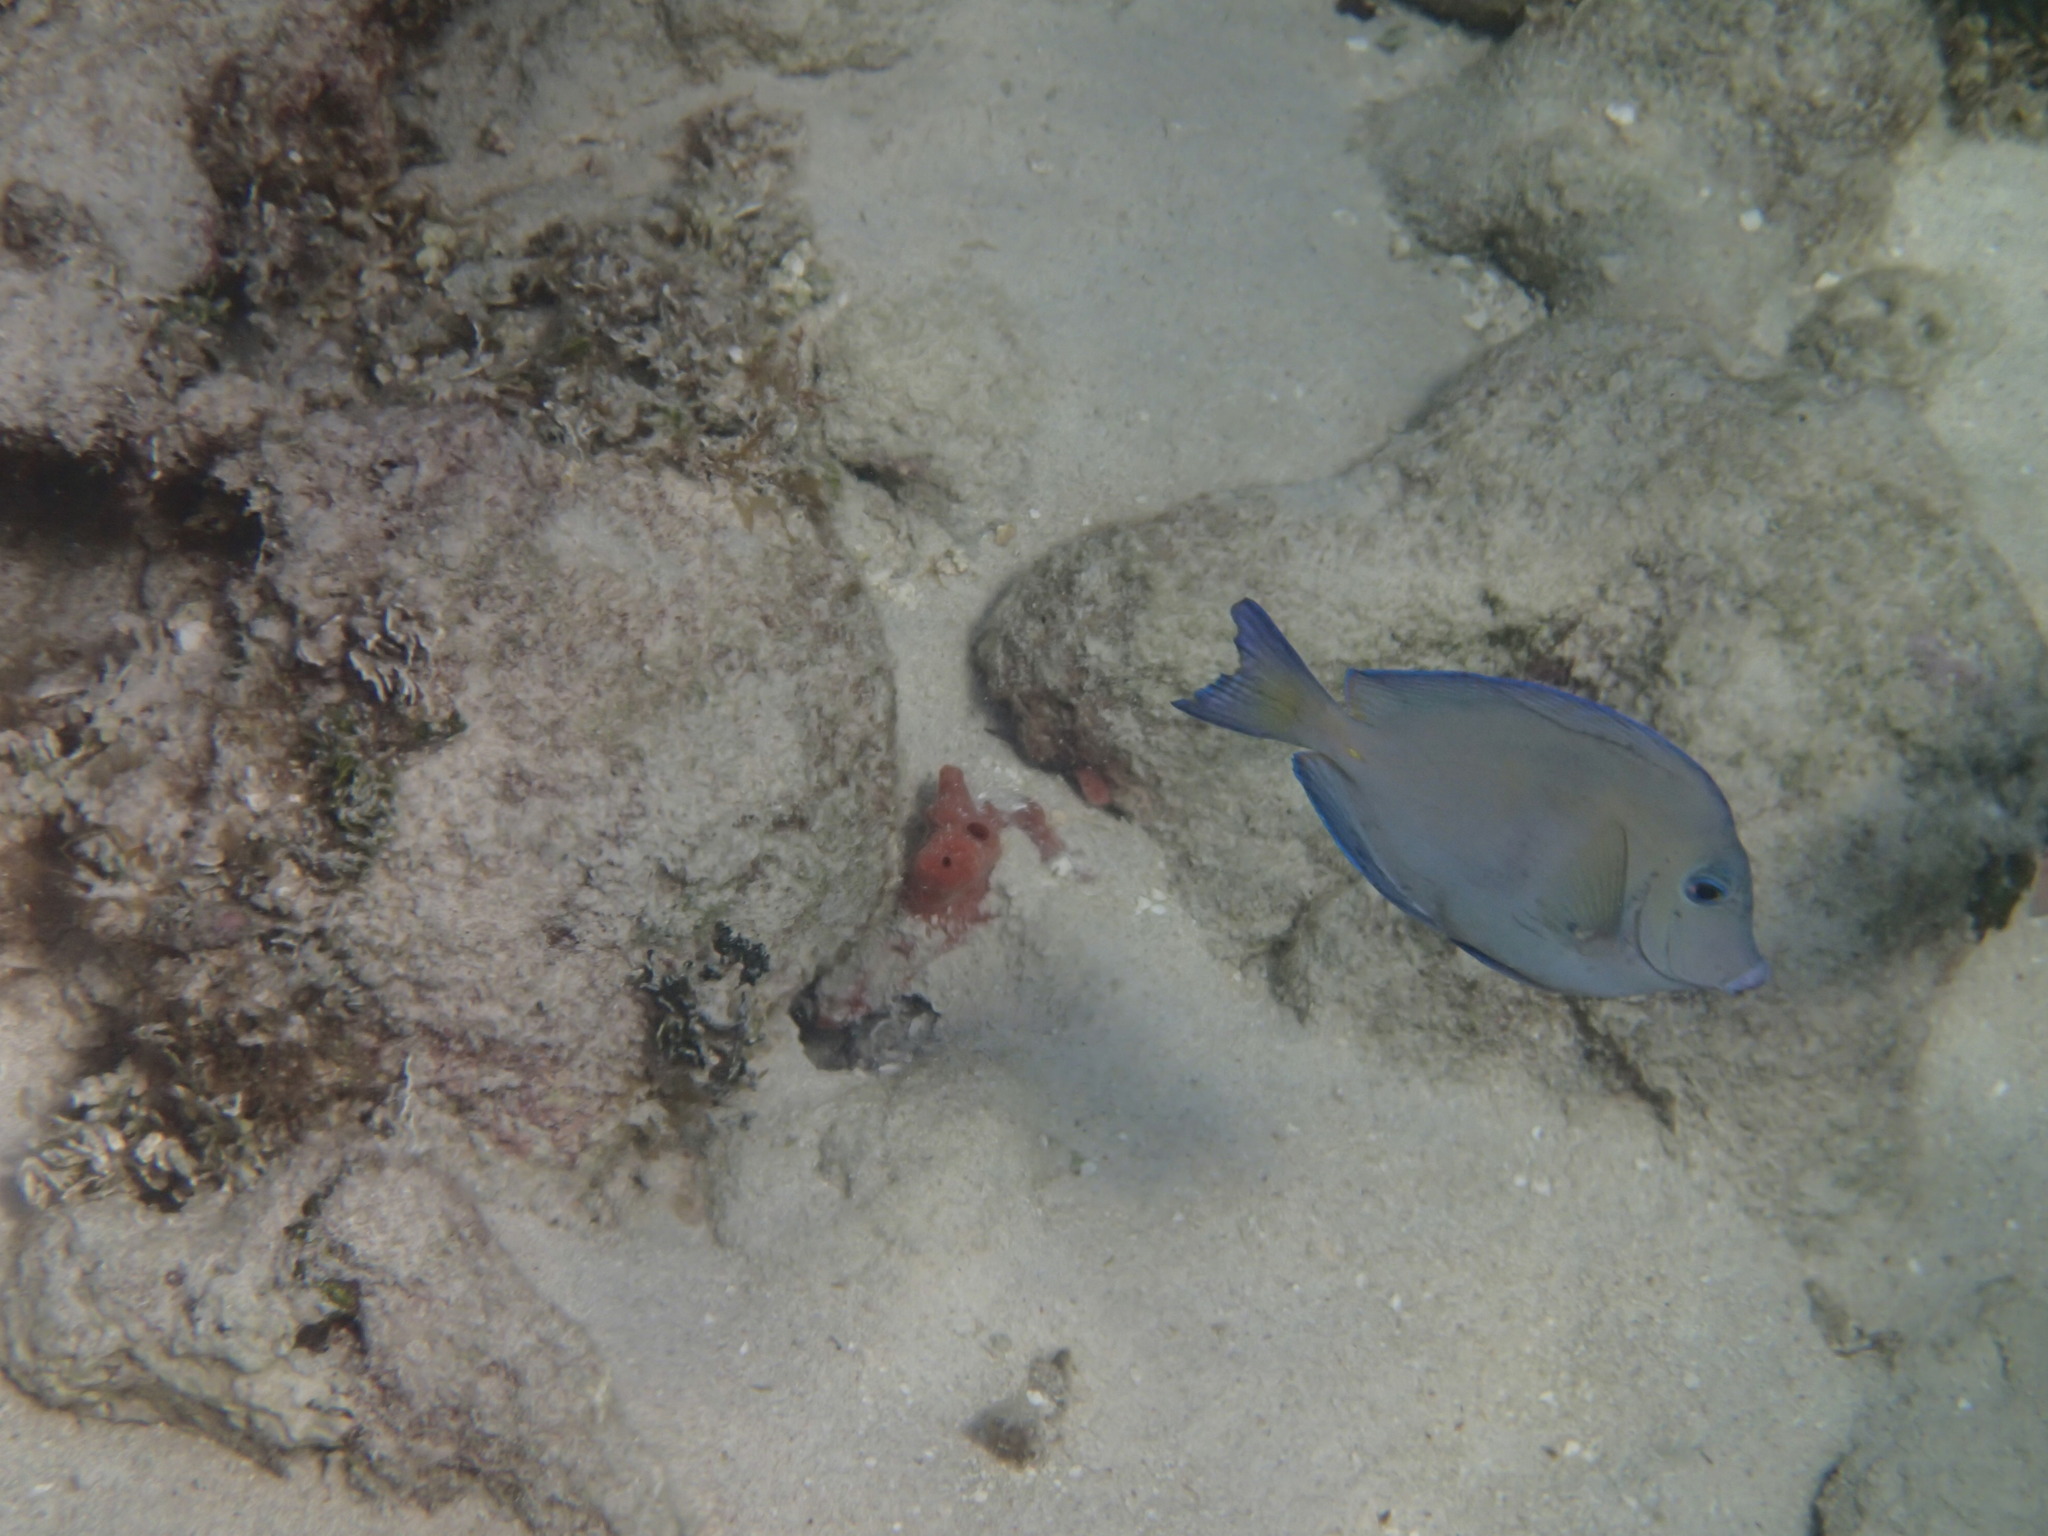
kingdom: Animalia
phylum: Chordata
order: Perciformes
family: Acanthuridae
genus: Acanthurus
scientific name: Acanthurus coeruleus
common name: Blue tang
